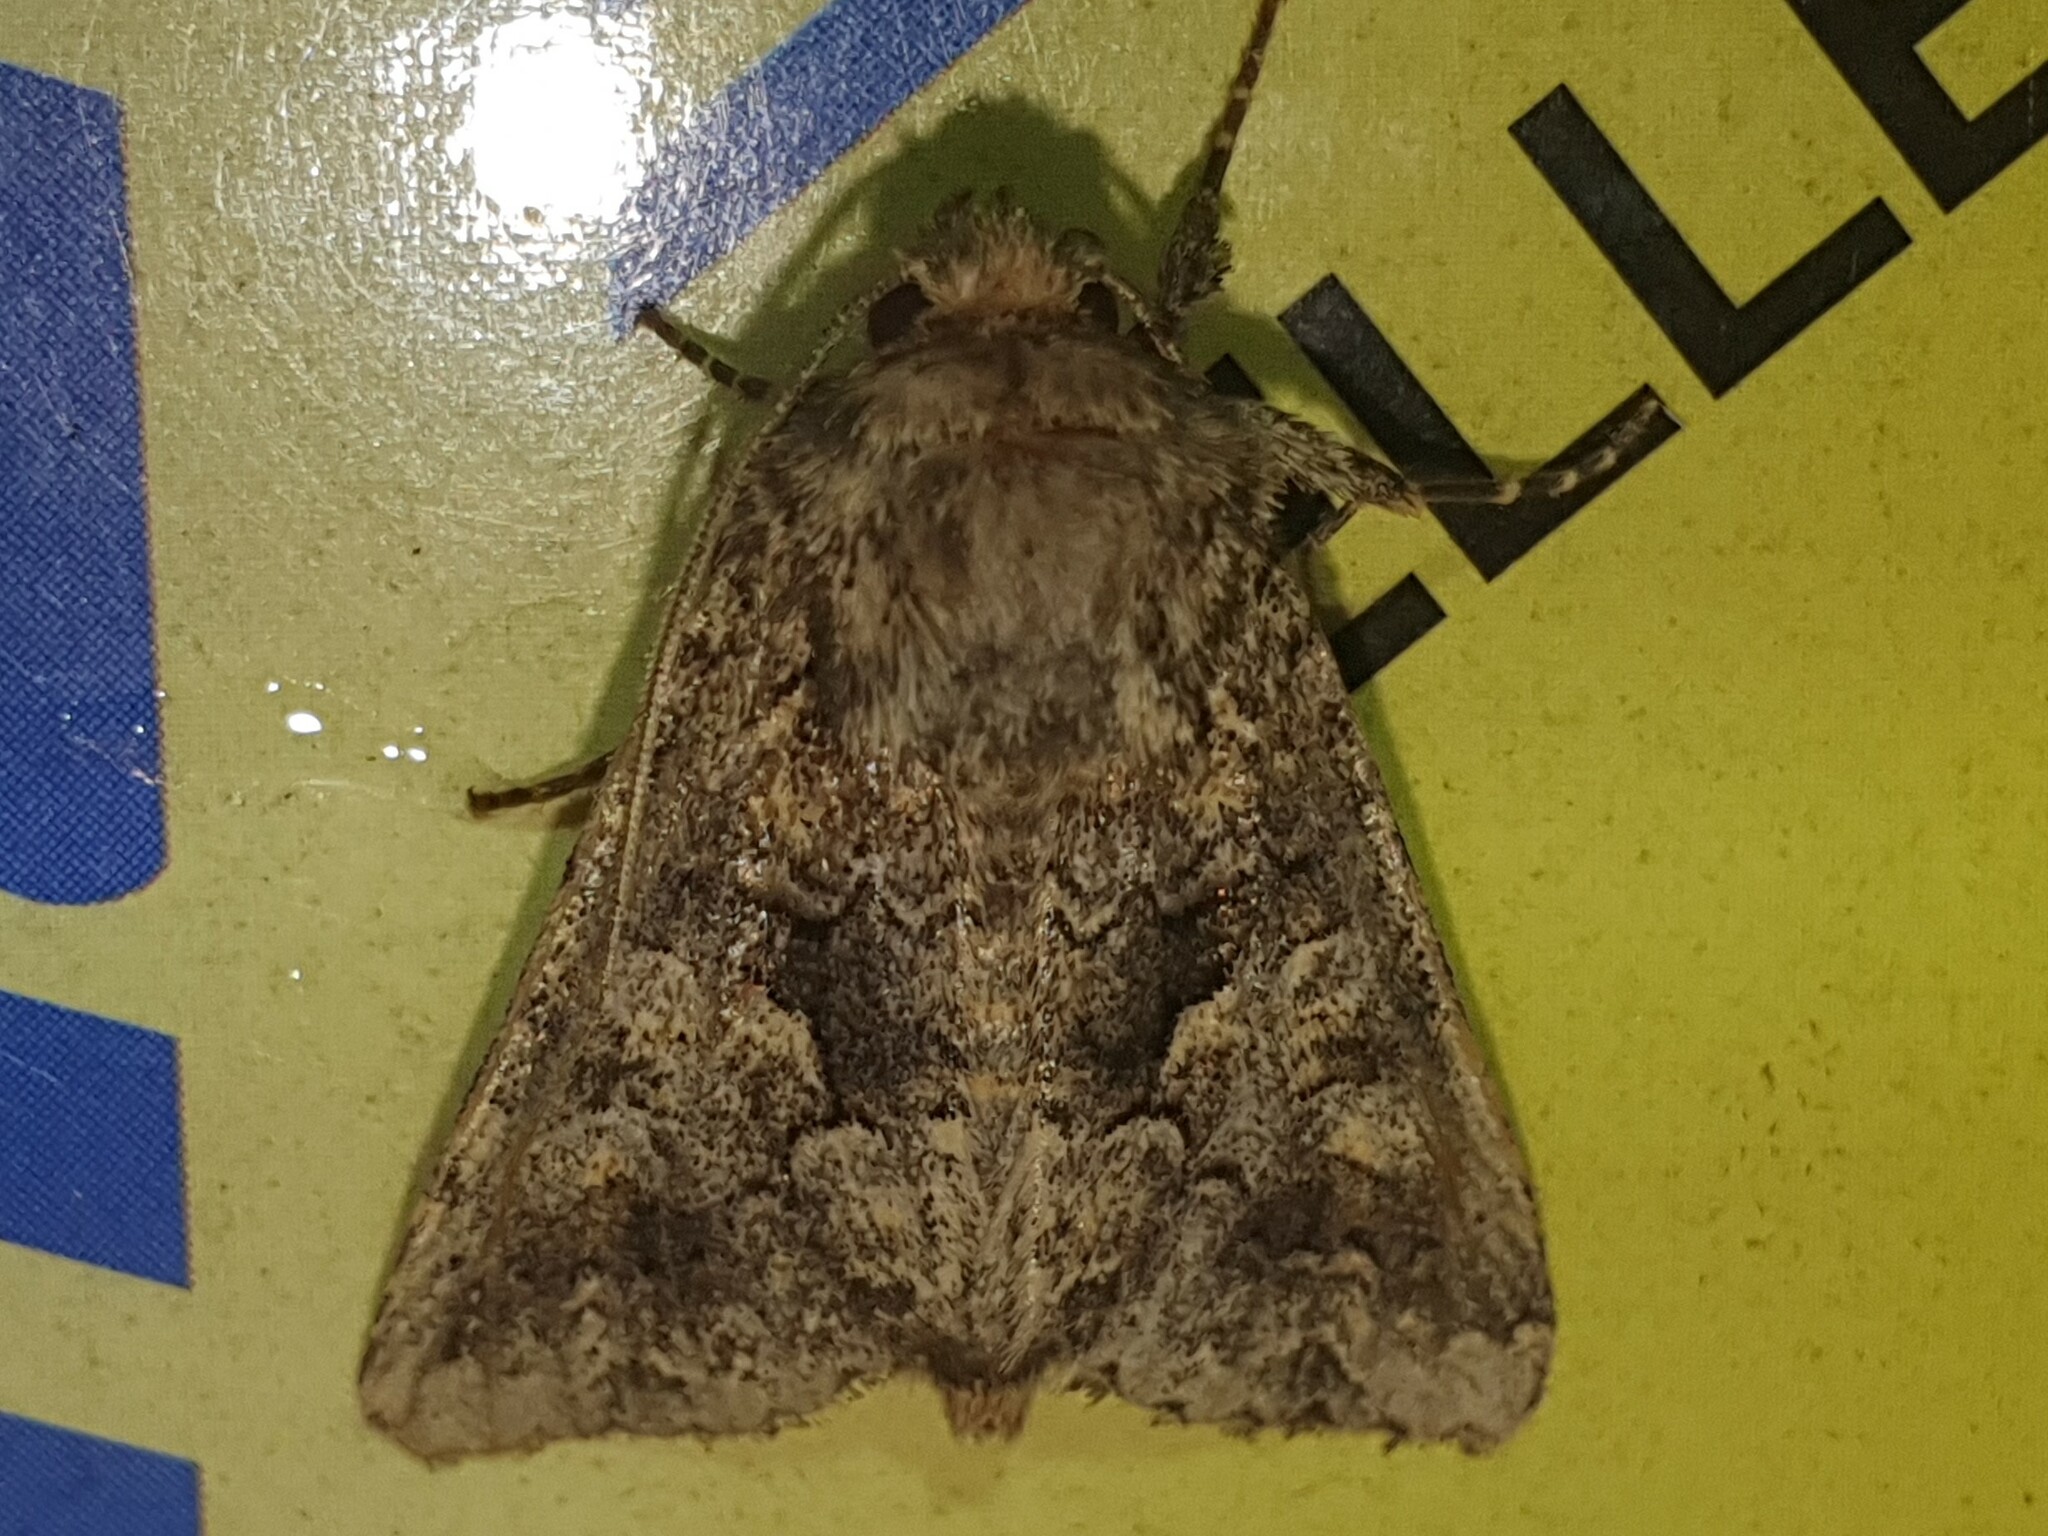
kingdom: Animalia
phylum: Arthropoda
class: Insecta
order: Lepidoptera
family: Noctuidae
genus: Conisania
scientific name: Conisania andalusica
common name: Barrett's marbled coronet
